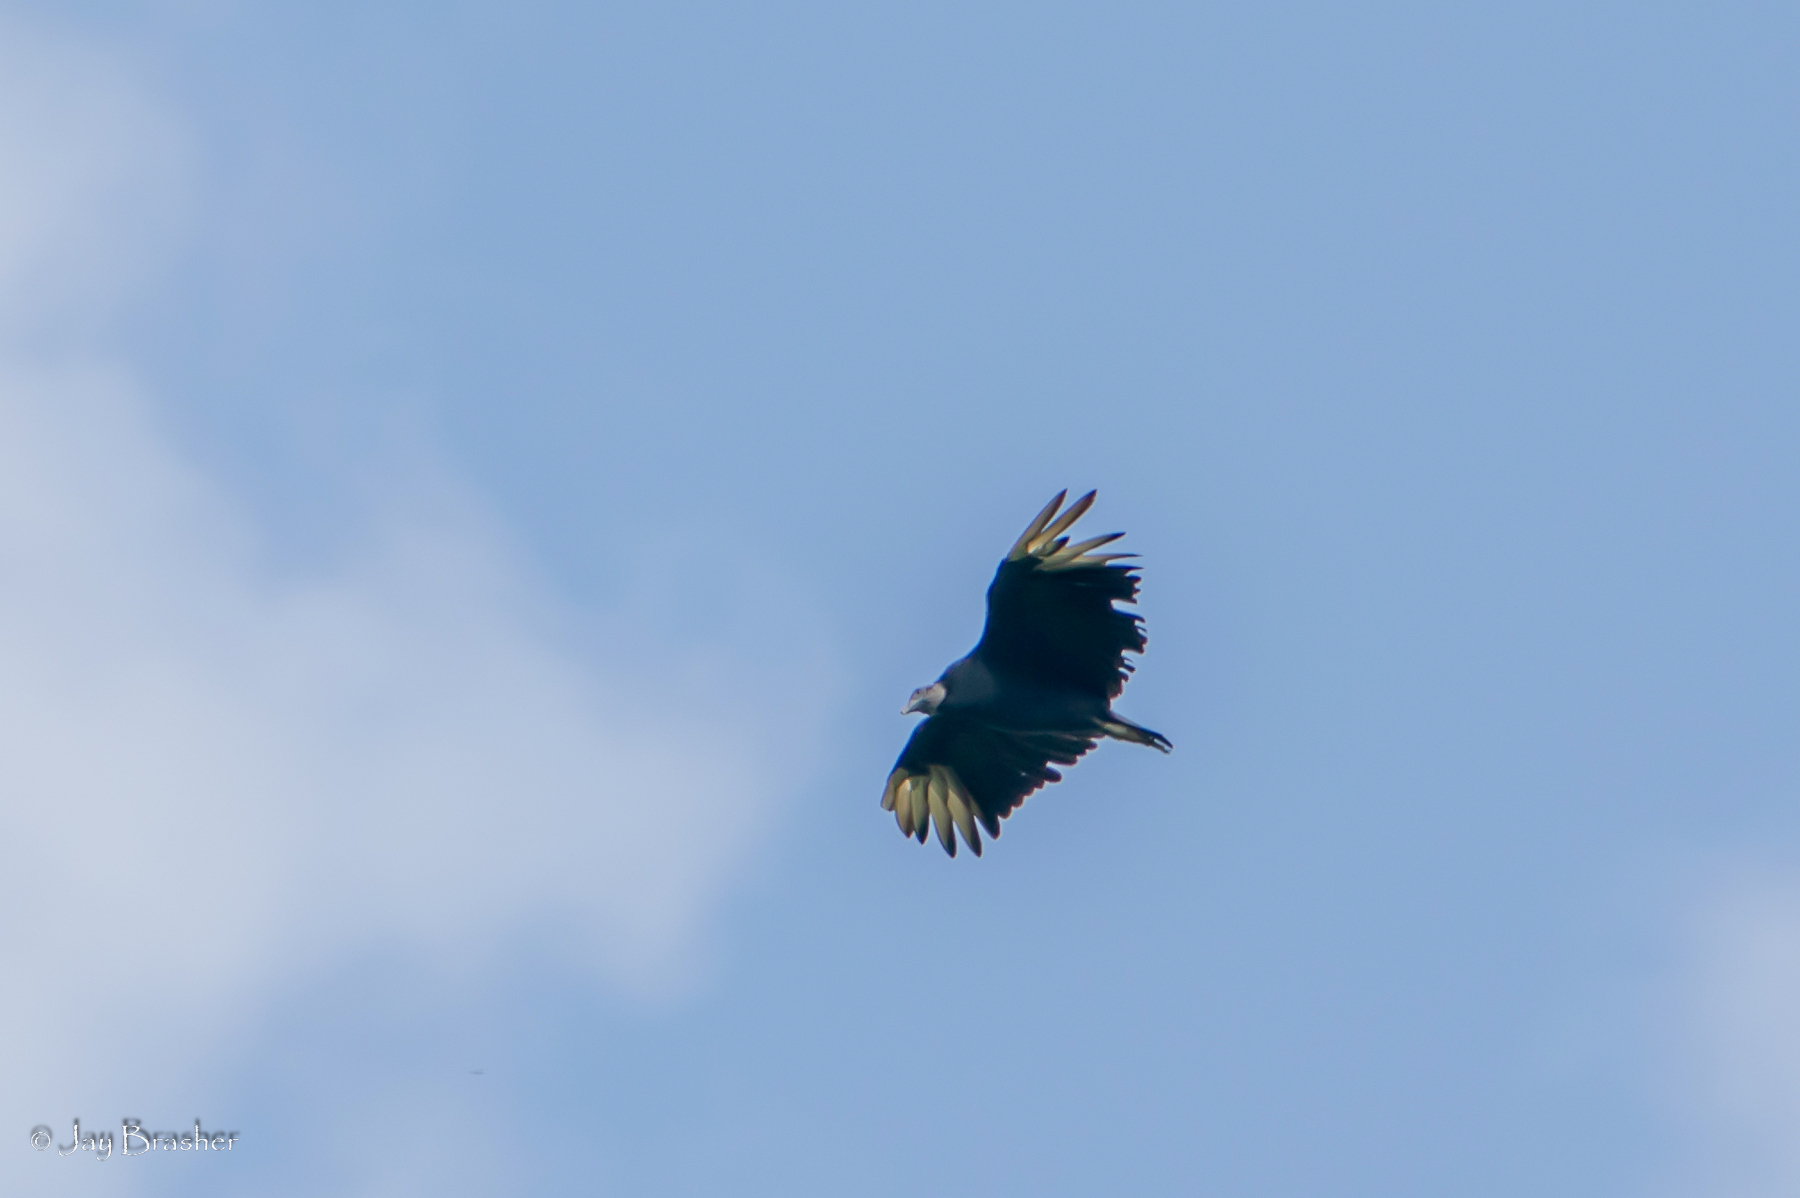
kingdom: Animalia
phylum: Chordata
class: Aves
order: Accipitriformes
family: Cathartidae
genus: Coragyps
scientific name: Coragyps atratus
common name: Black vulture
